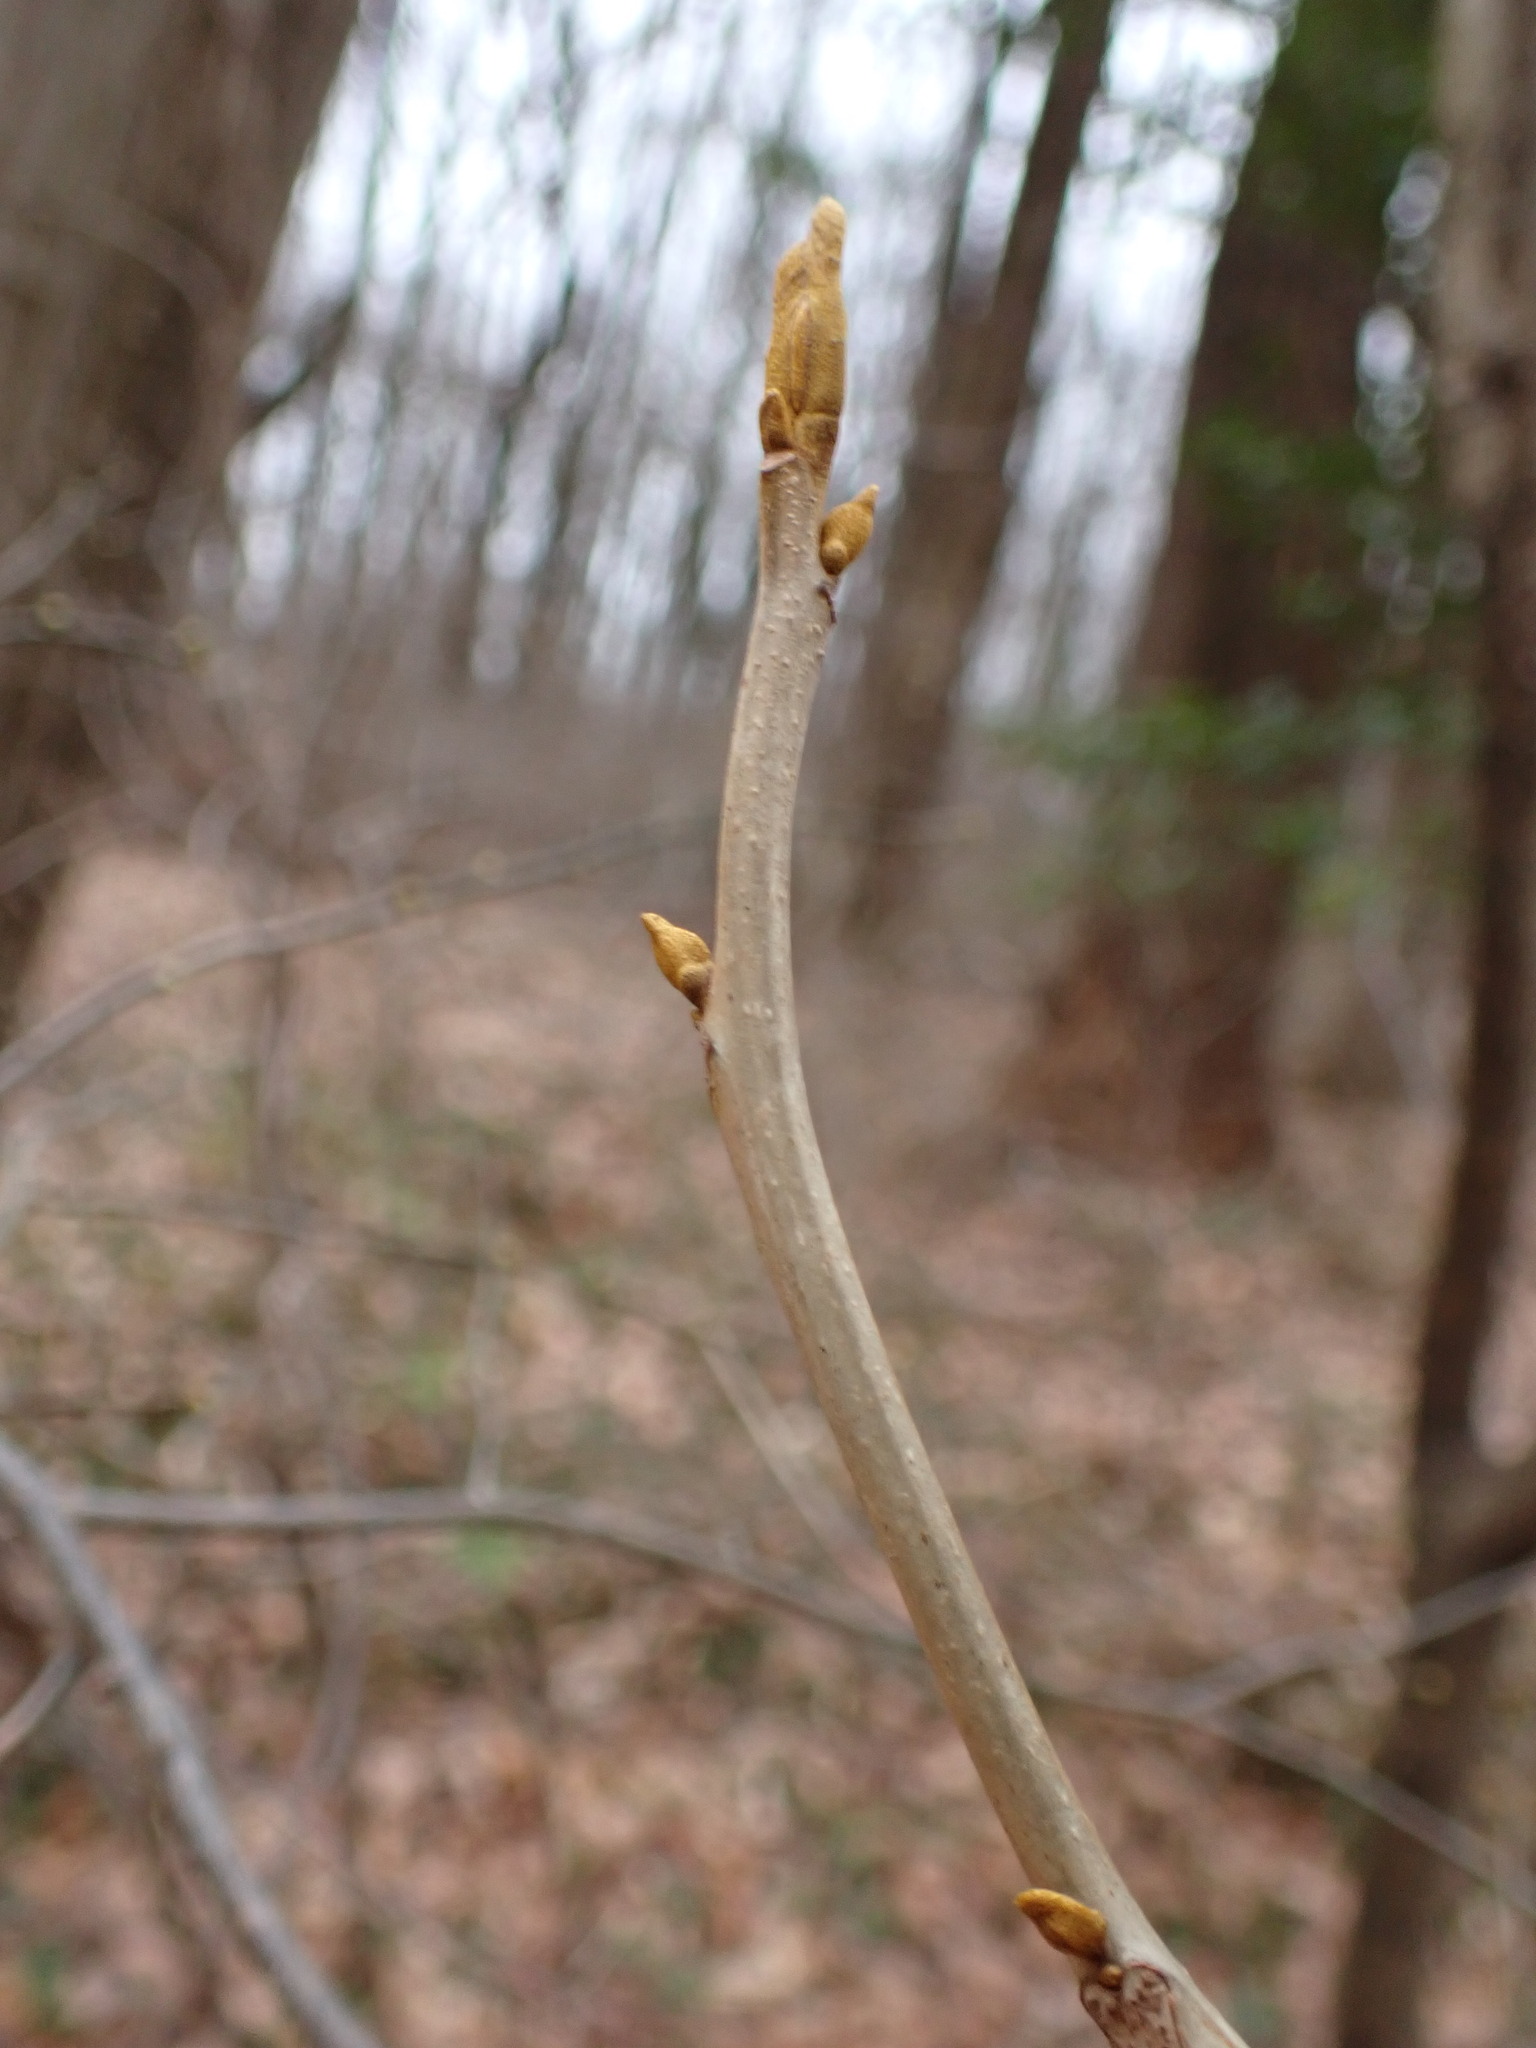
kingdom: Plantae
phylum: Tracheophyta
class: Magnoliopsida
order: Fagales
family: Juglandaceae
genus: Carya
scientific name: Carya cordiformis
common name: Bitternut hickory
